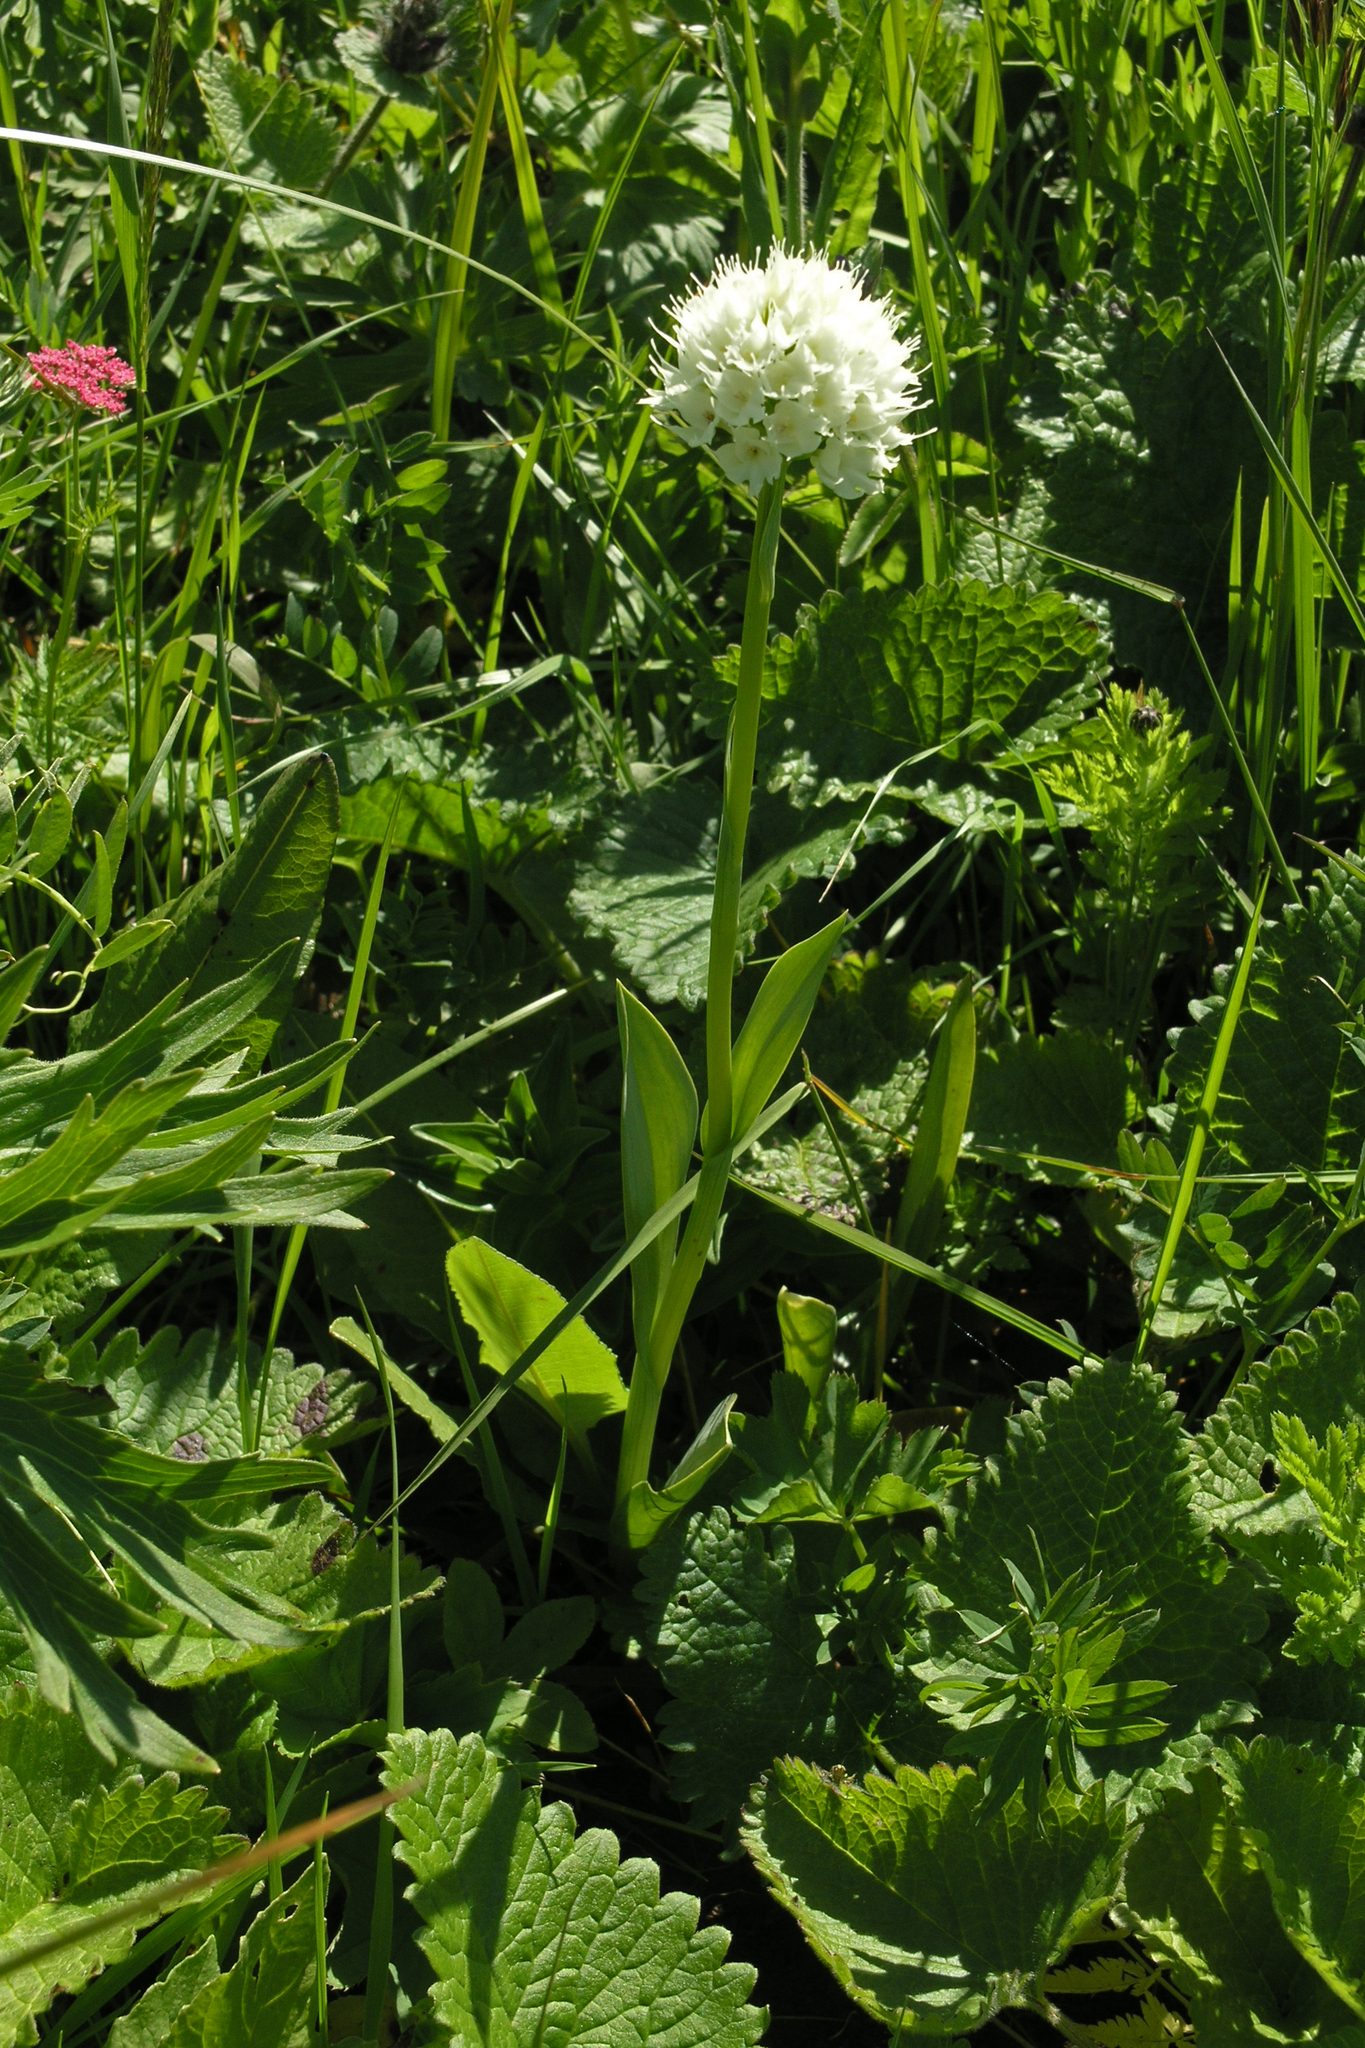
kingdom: Plantae
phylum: Tracheophyta
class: Liliopsida
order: Asparagales
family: Orchidaceae
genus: Traunsteinera
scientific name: Traunsteinera sphaerica
